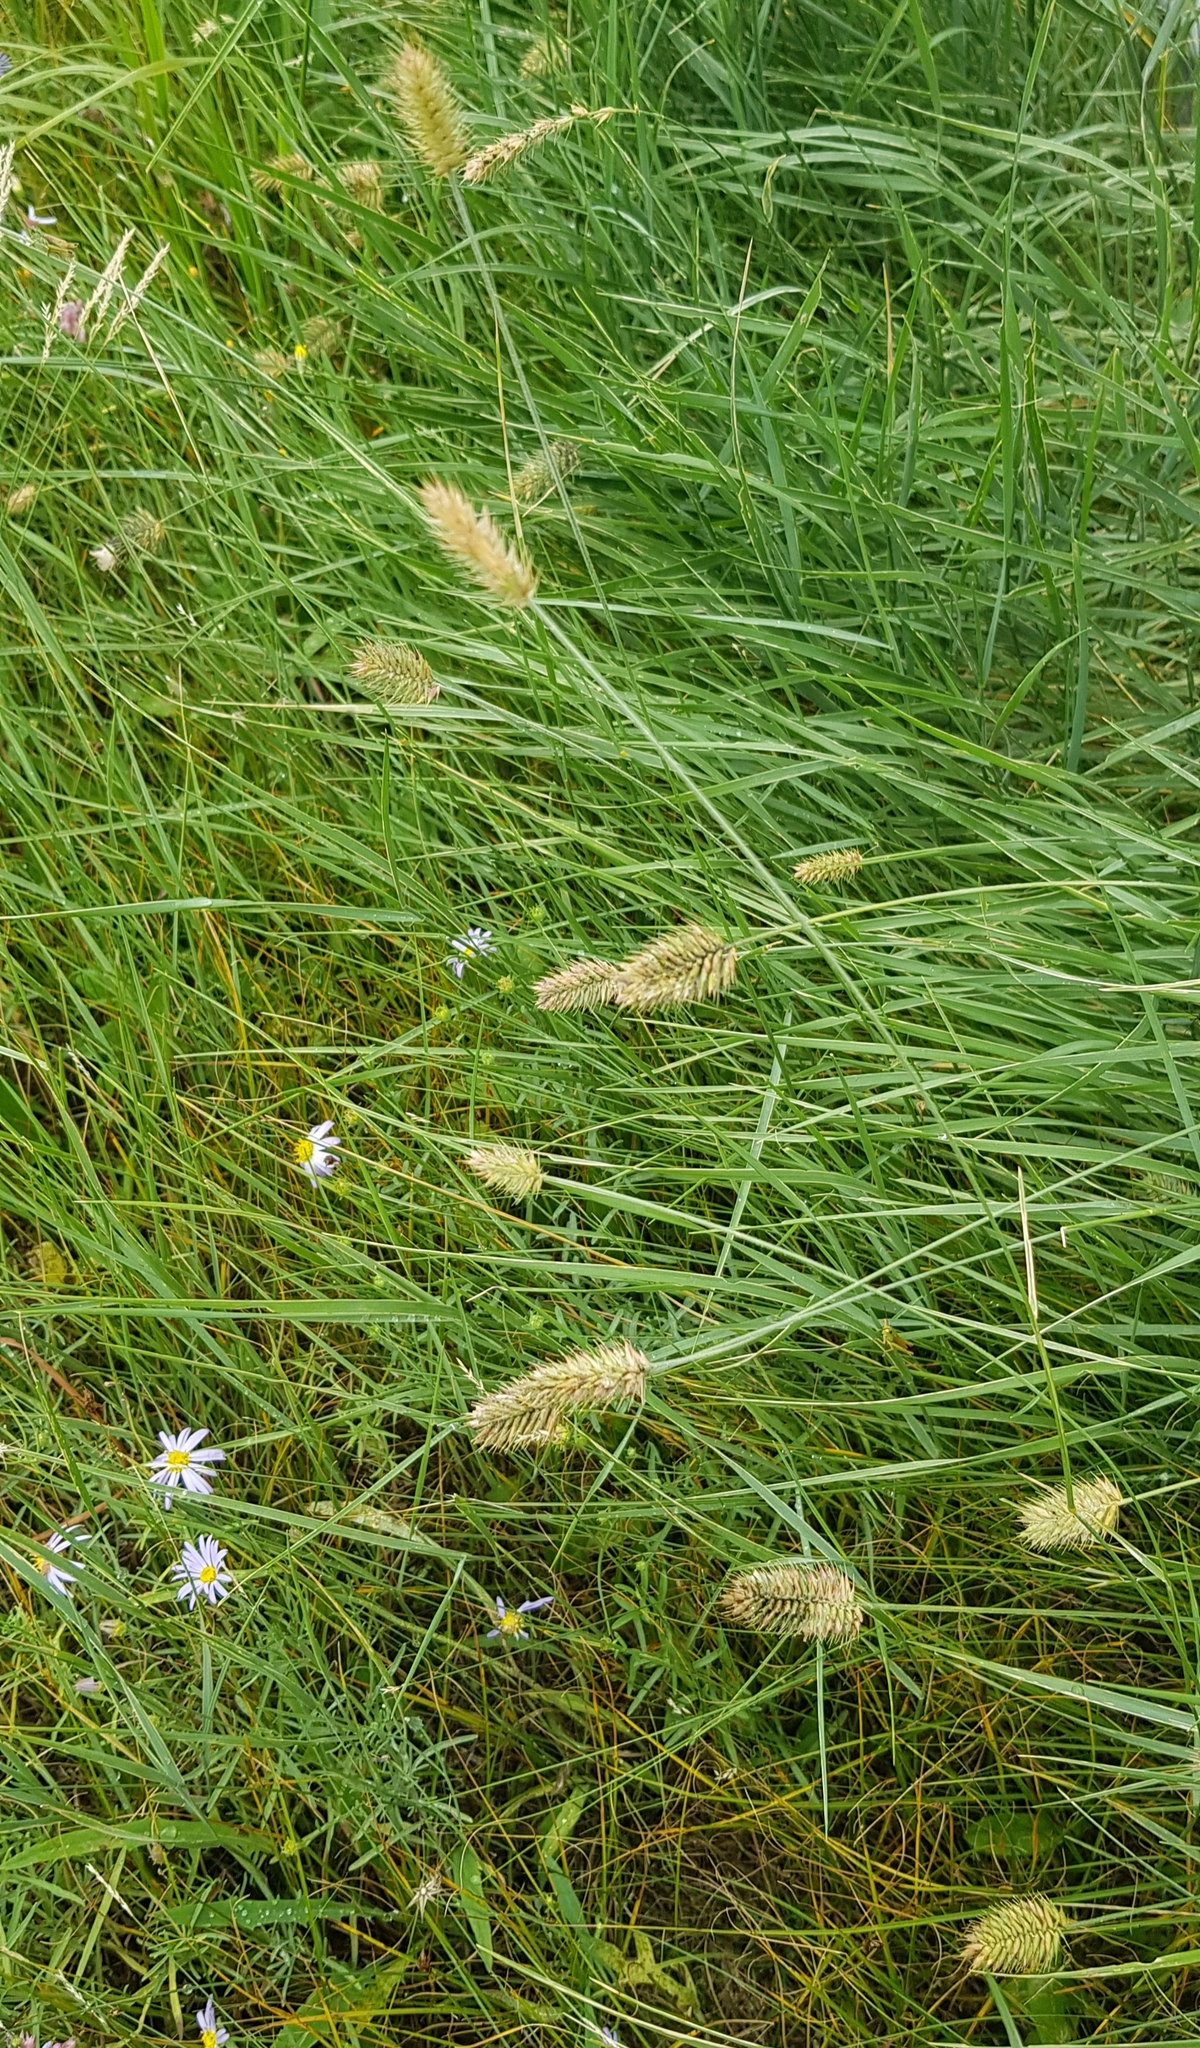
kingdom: Plantae
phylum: Tracheophyta
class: Liliopsida
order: Poales
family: Poaceae
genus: Agropyron
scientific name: Agropyron cristatum
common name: Crested wheatgrass
